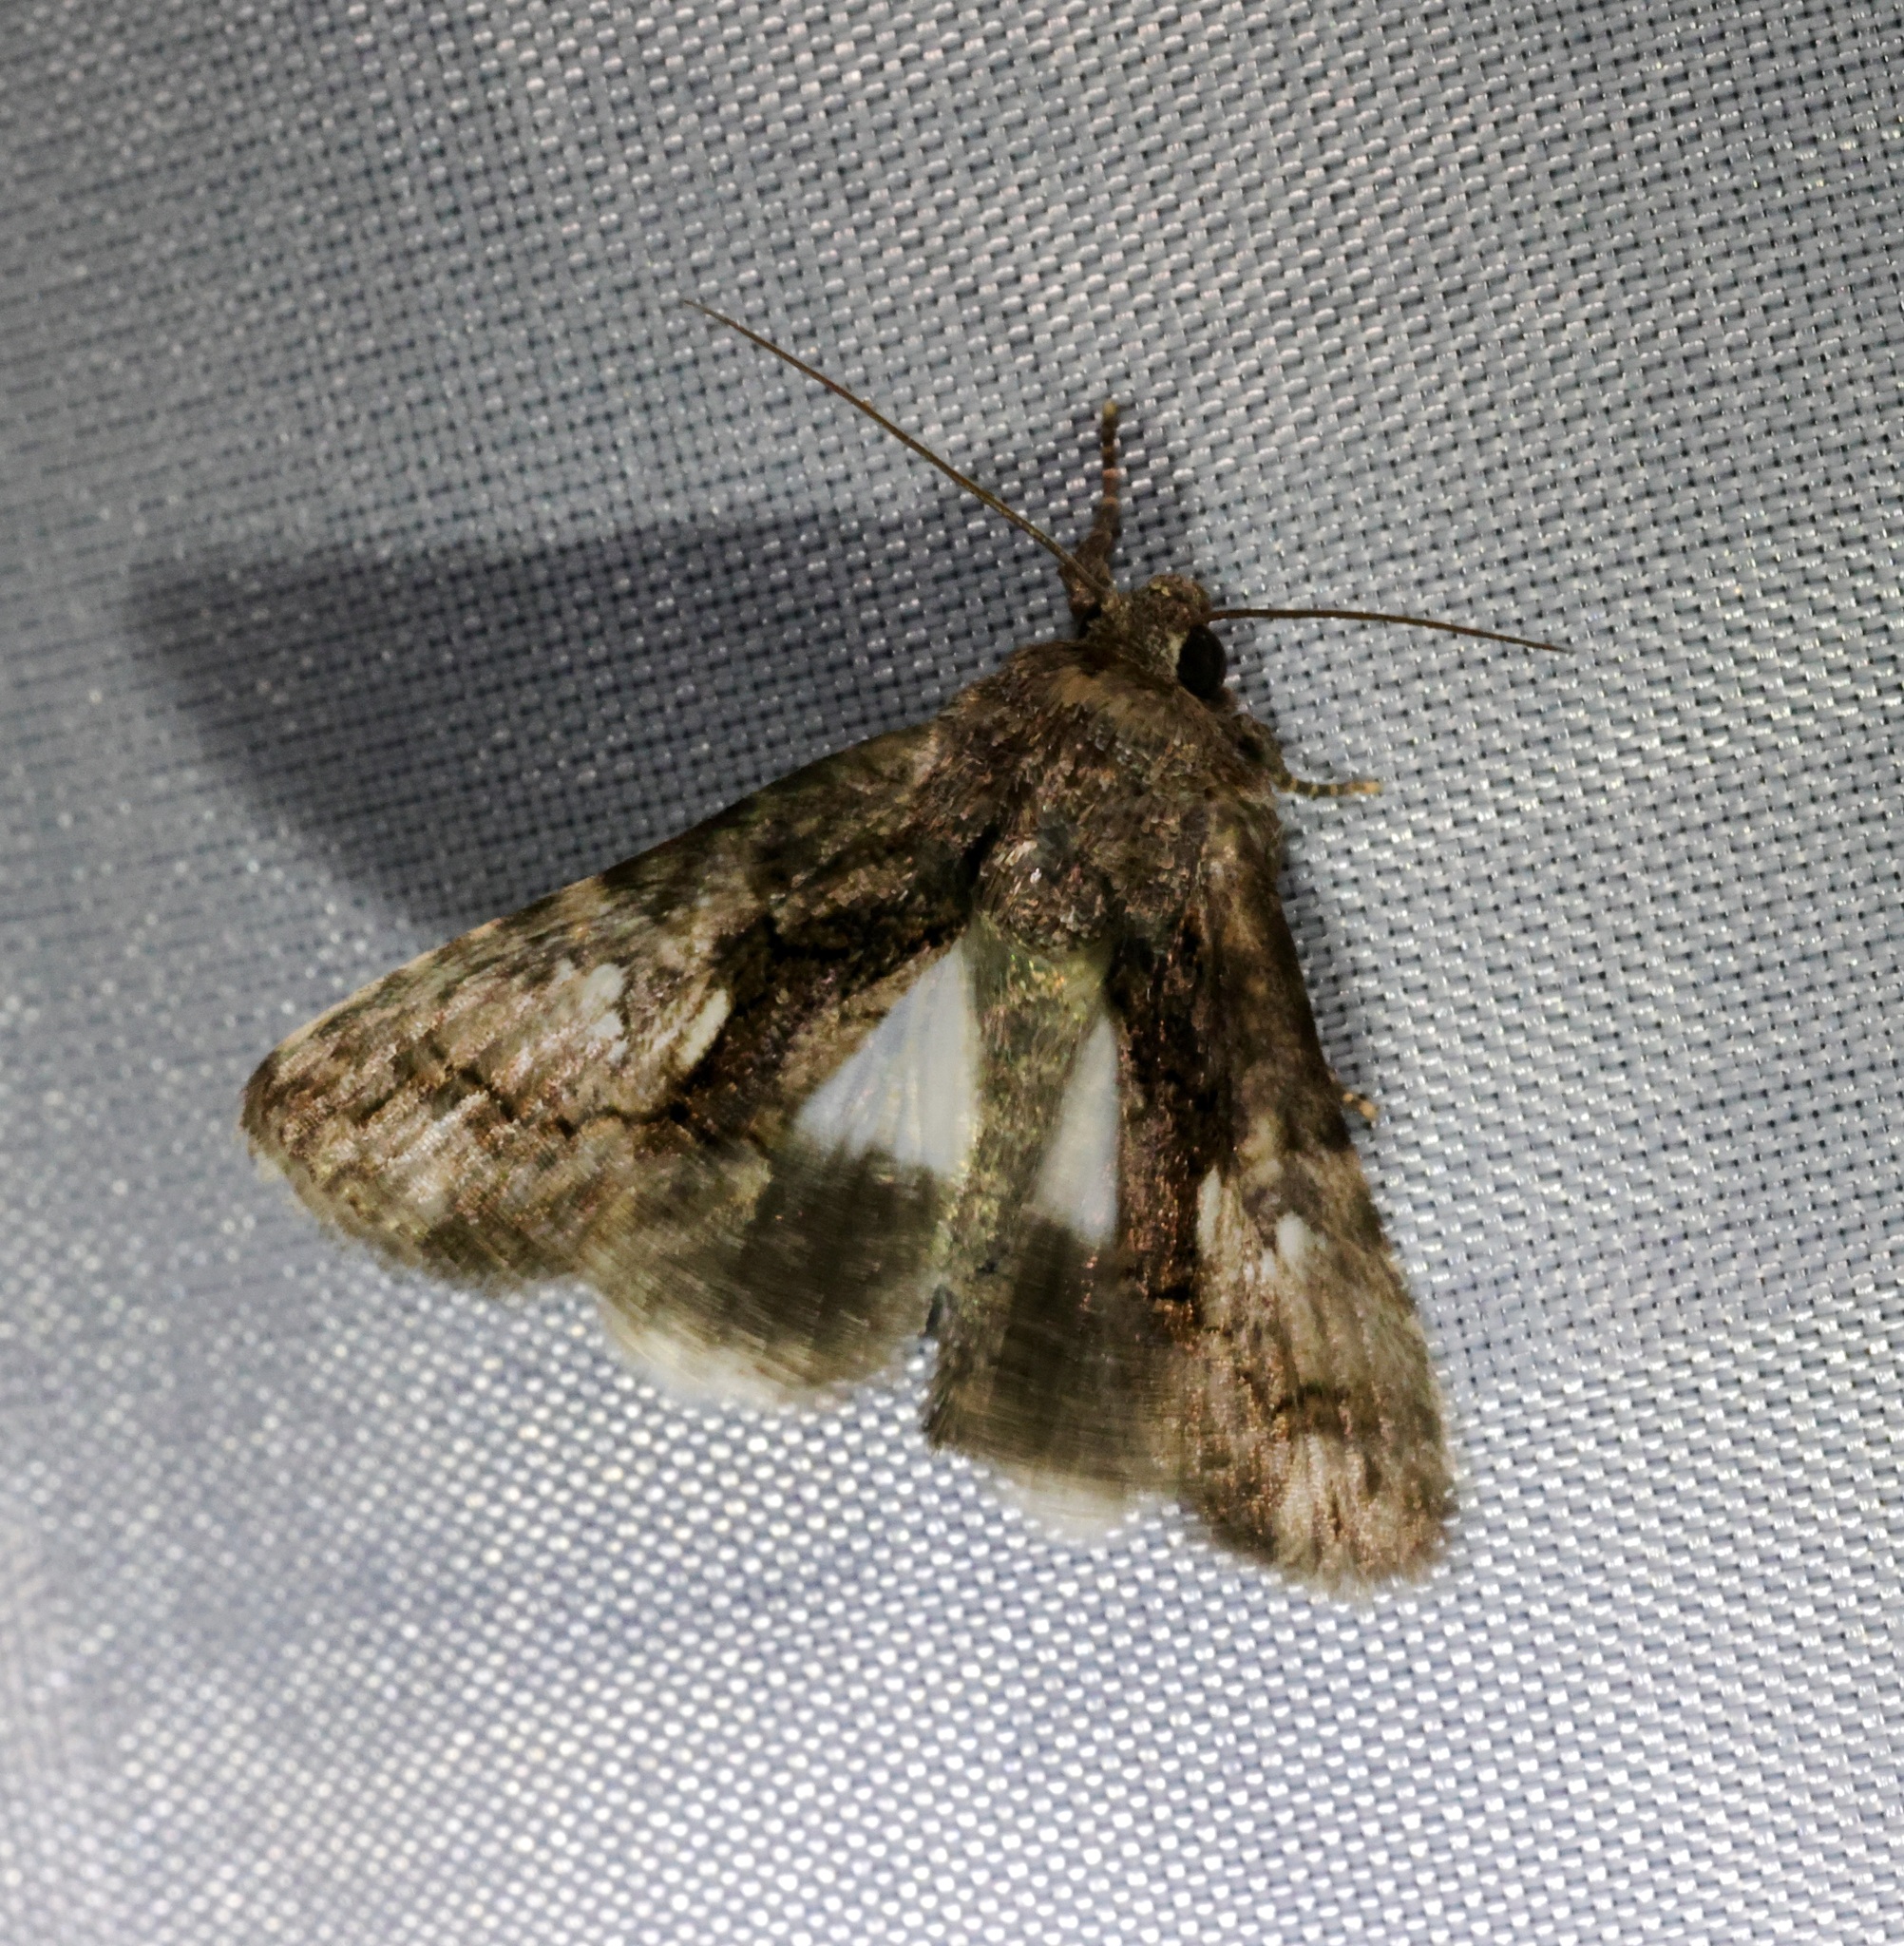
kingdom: Animalia
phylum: Arthropoda
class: Insecta
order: Lepidoptera
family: Noctuidae
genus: Aedia
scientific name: Aedia leucomelas
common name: Sorcerer
